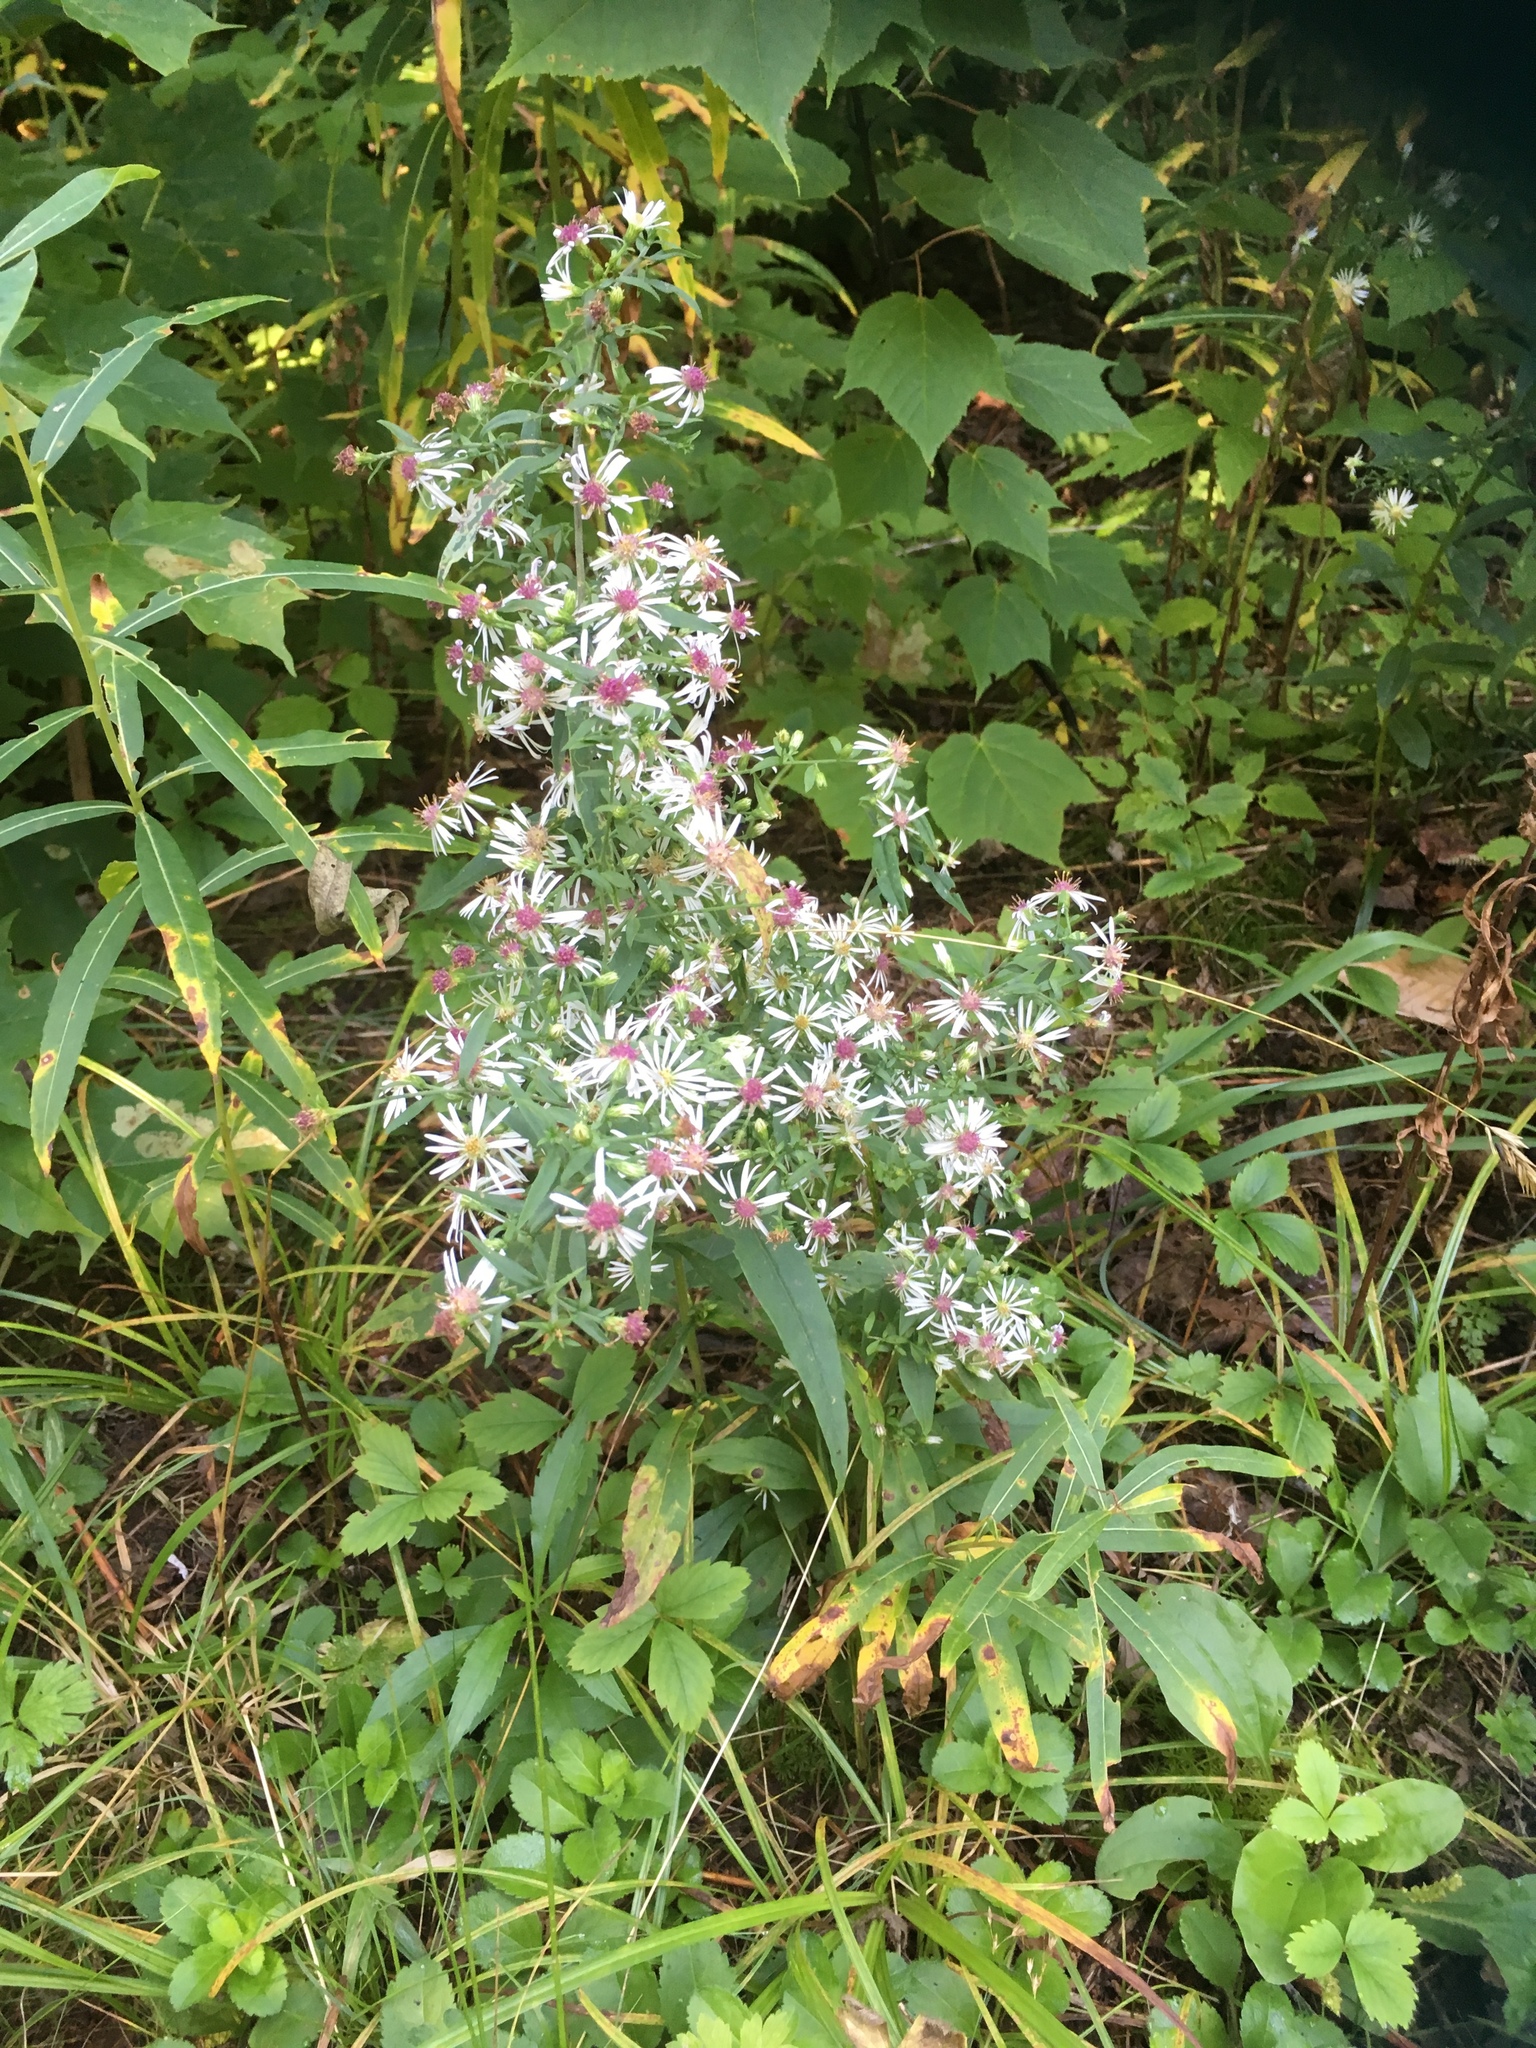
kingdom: Plantae
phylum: Tracheophyta
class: Magnoliopsida
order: Asterales
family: Asteraceae
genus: Symphyotrichum
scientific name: Symphyotrichum lateriflorum
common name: Calico aster
